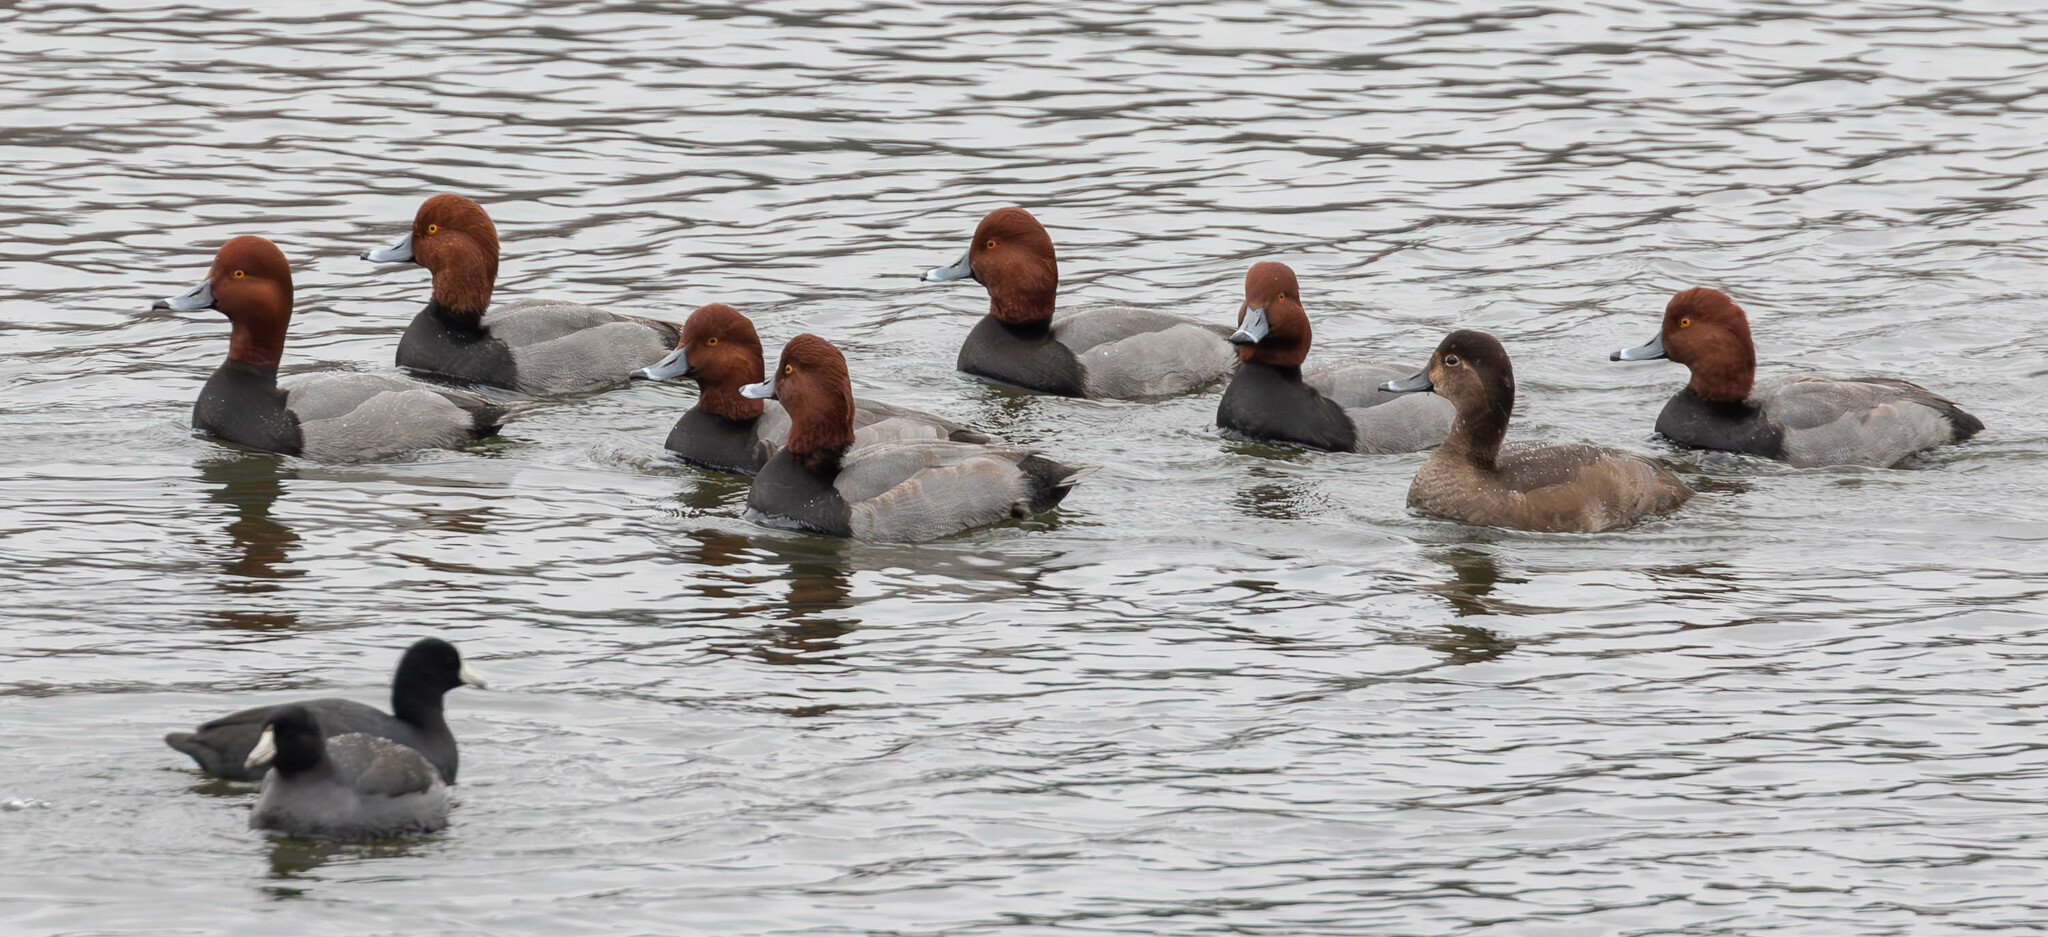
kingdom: Animalia
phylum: Chordata
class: Aves
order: Anseriformes
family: Anatidae
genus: Aythya
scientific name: Aythya americana
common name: Redhead
